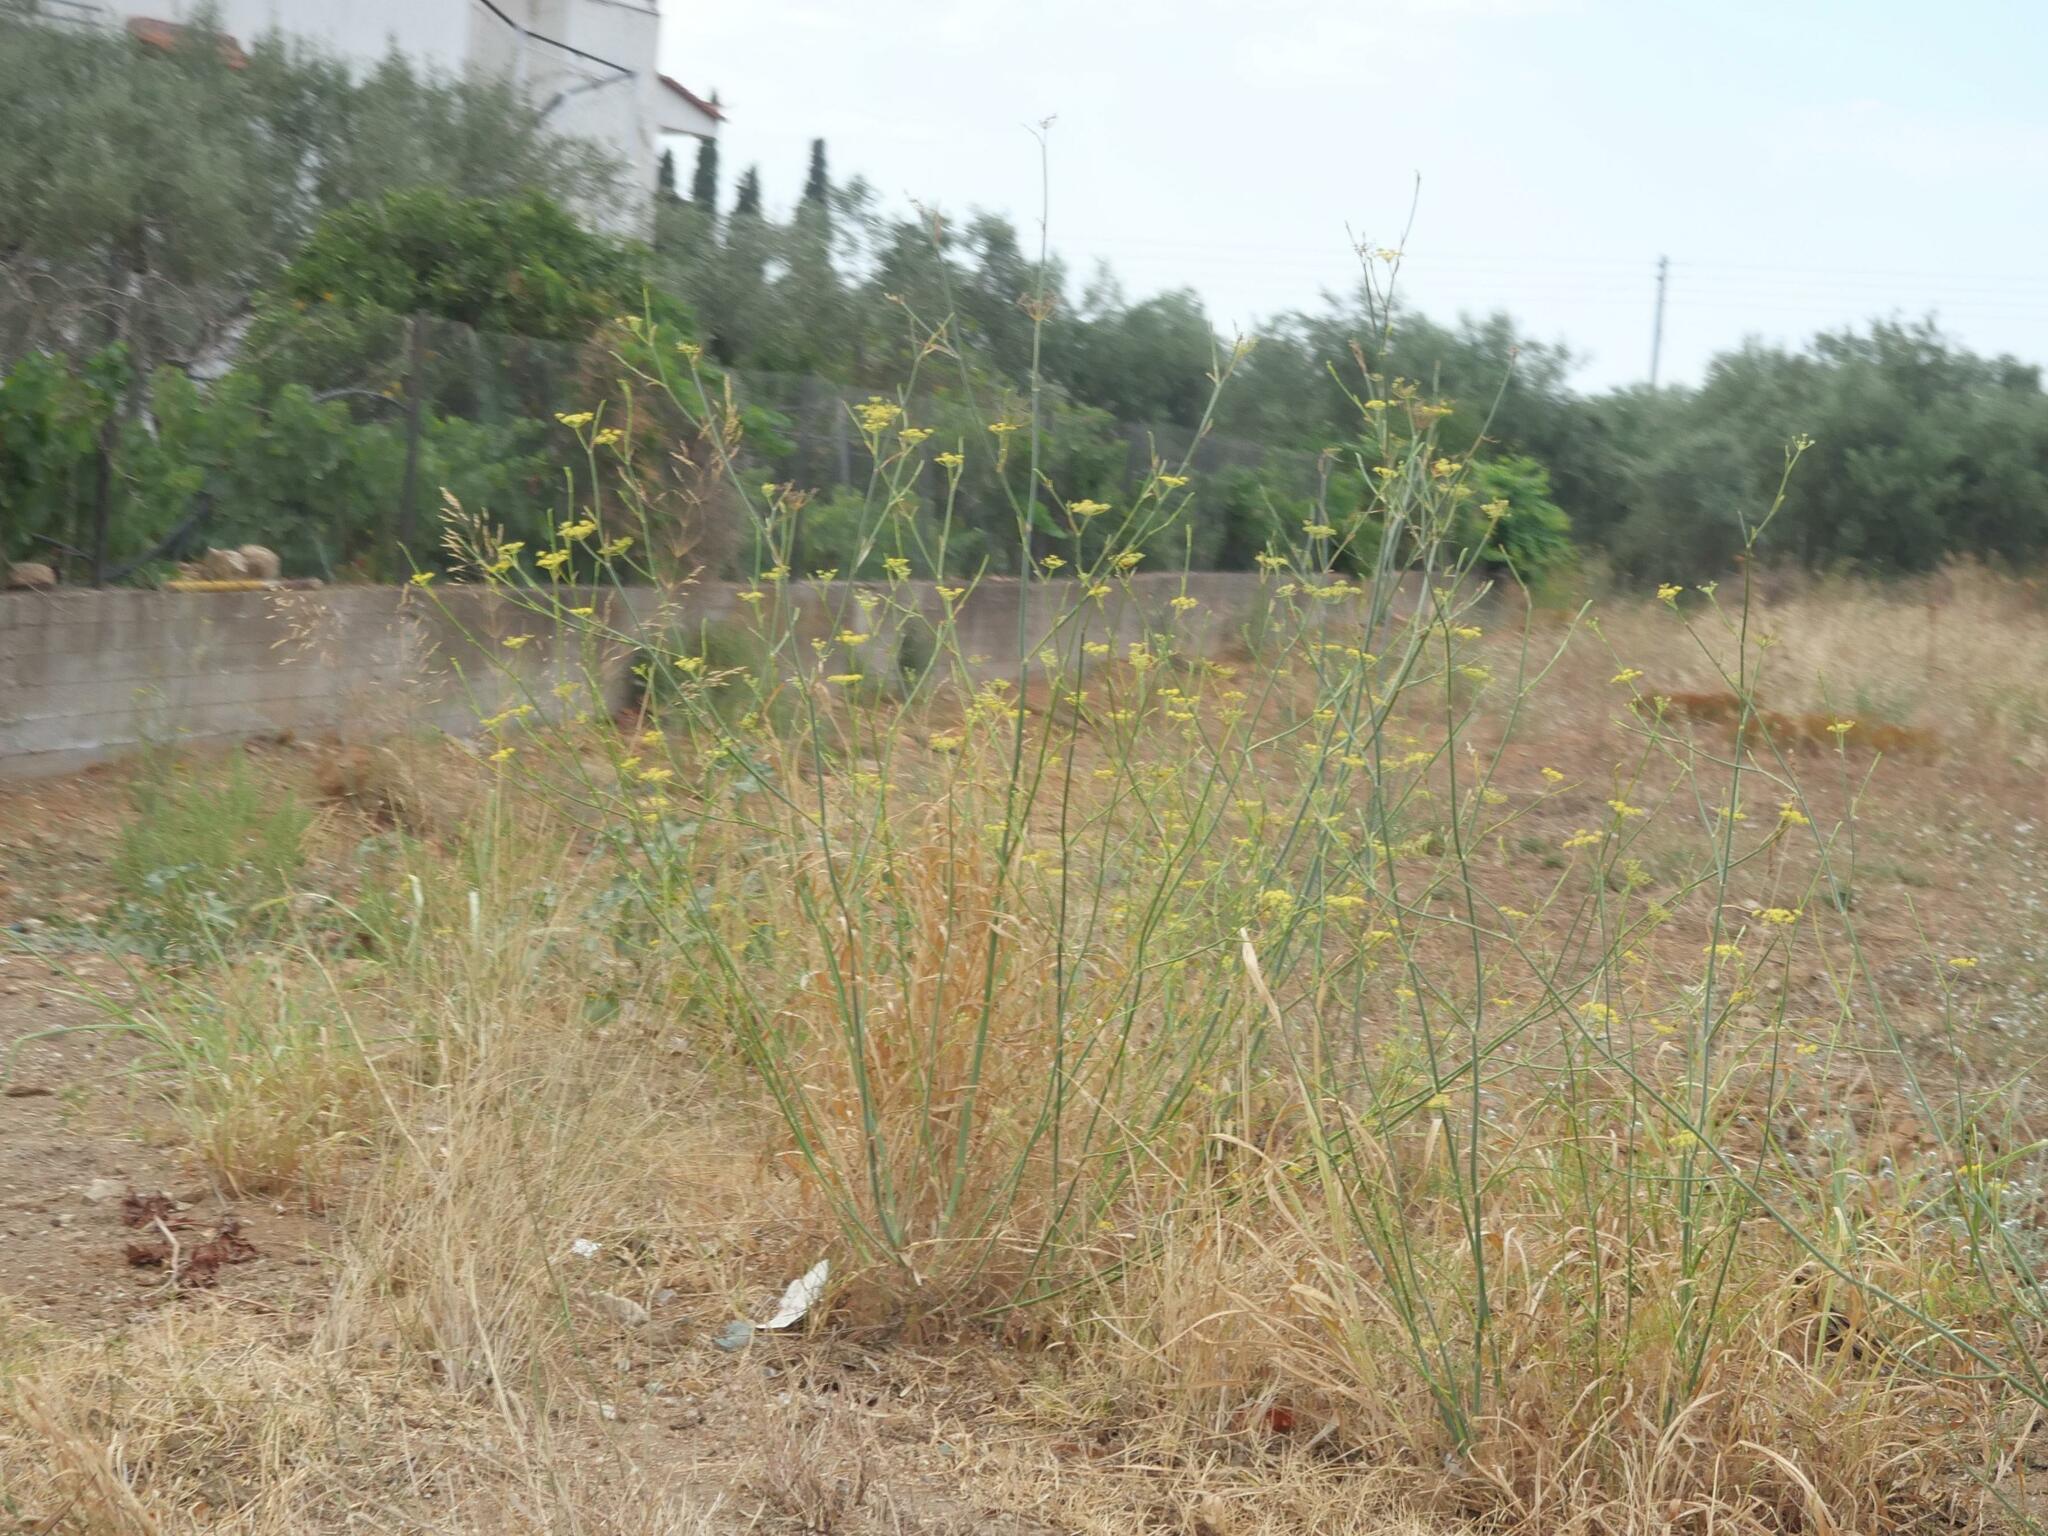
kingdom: Plantae
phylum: Tracheophyta
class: Magnoliopsida
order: Apiales
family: Apiaceae
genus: Foeniculum
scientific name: Foeniculum vulgare
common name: Fennel
